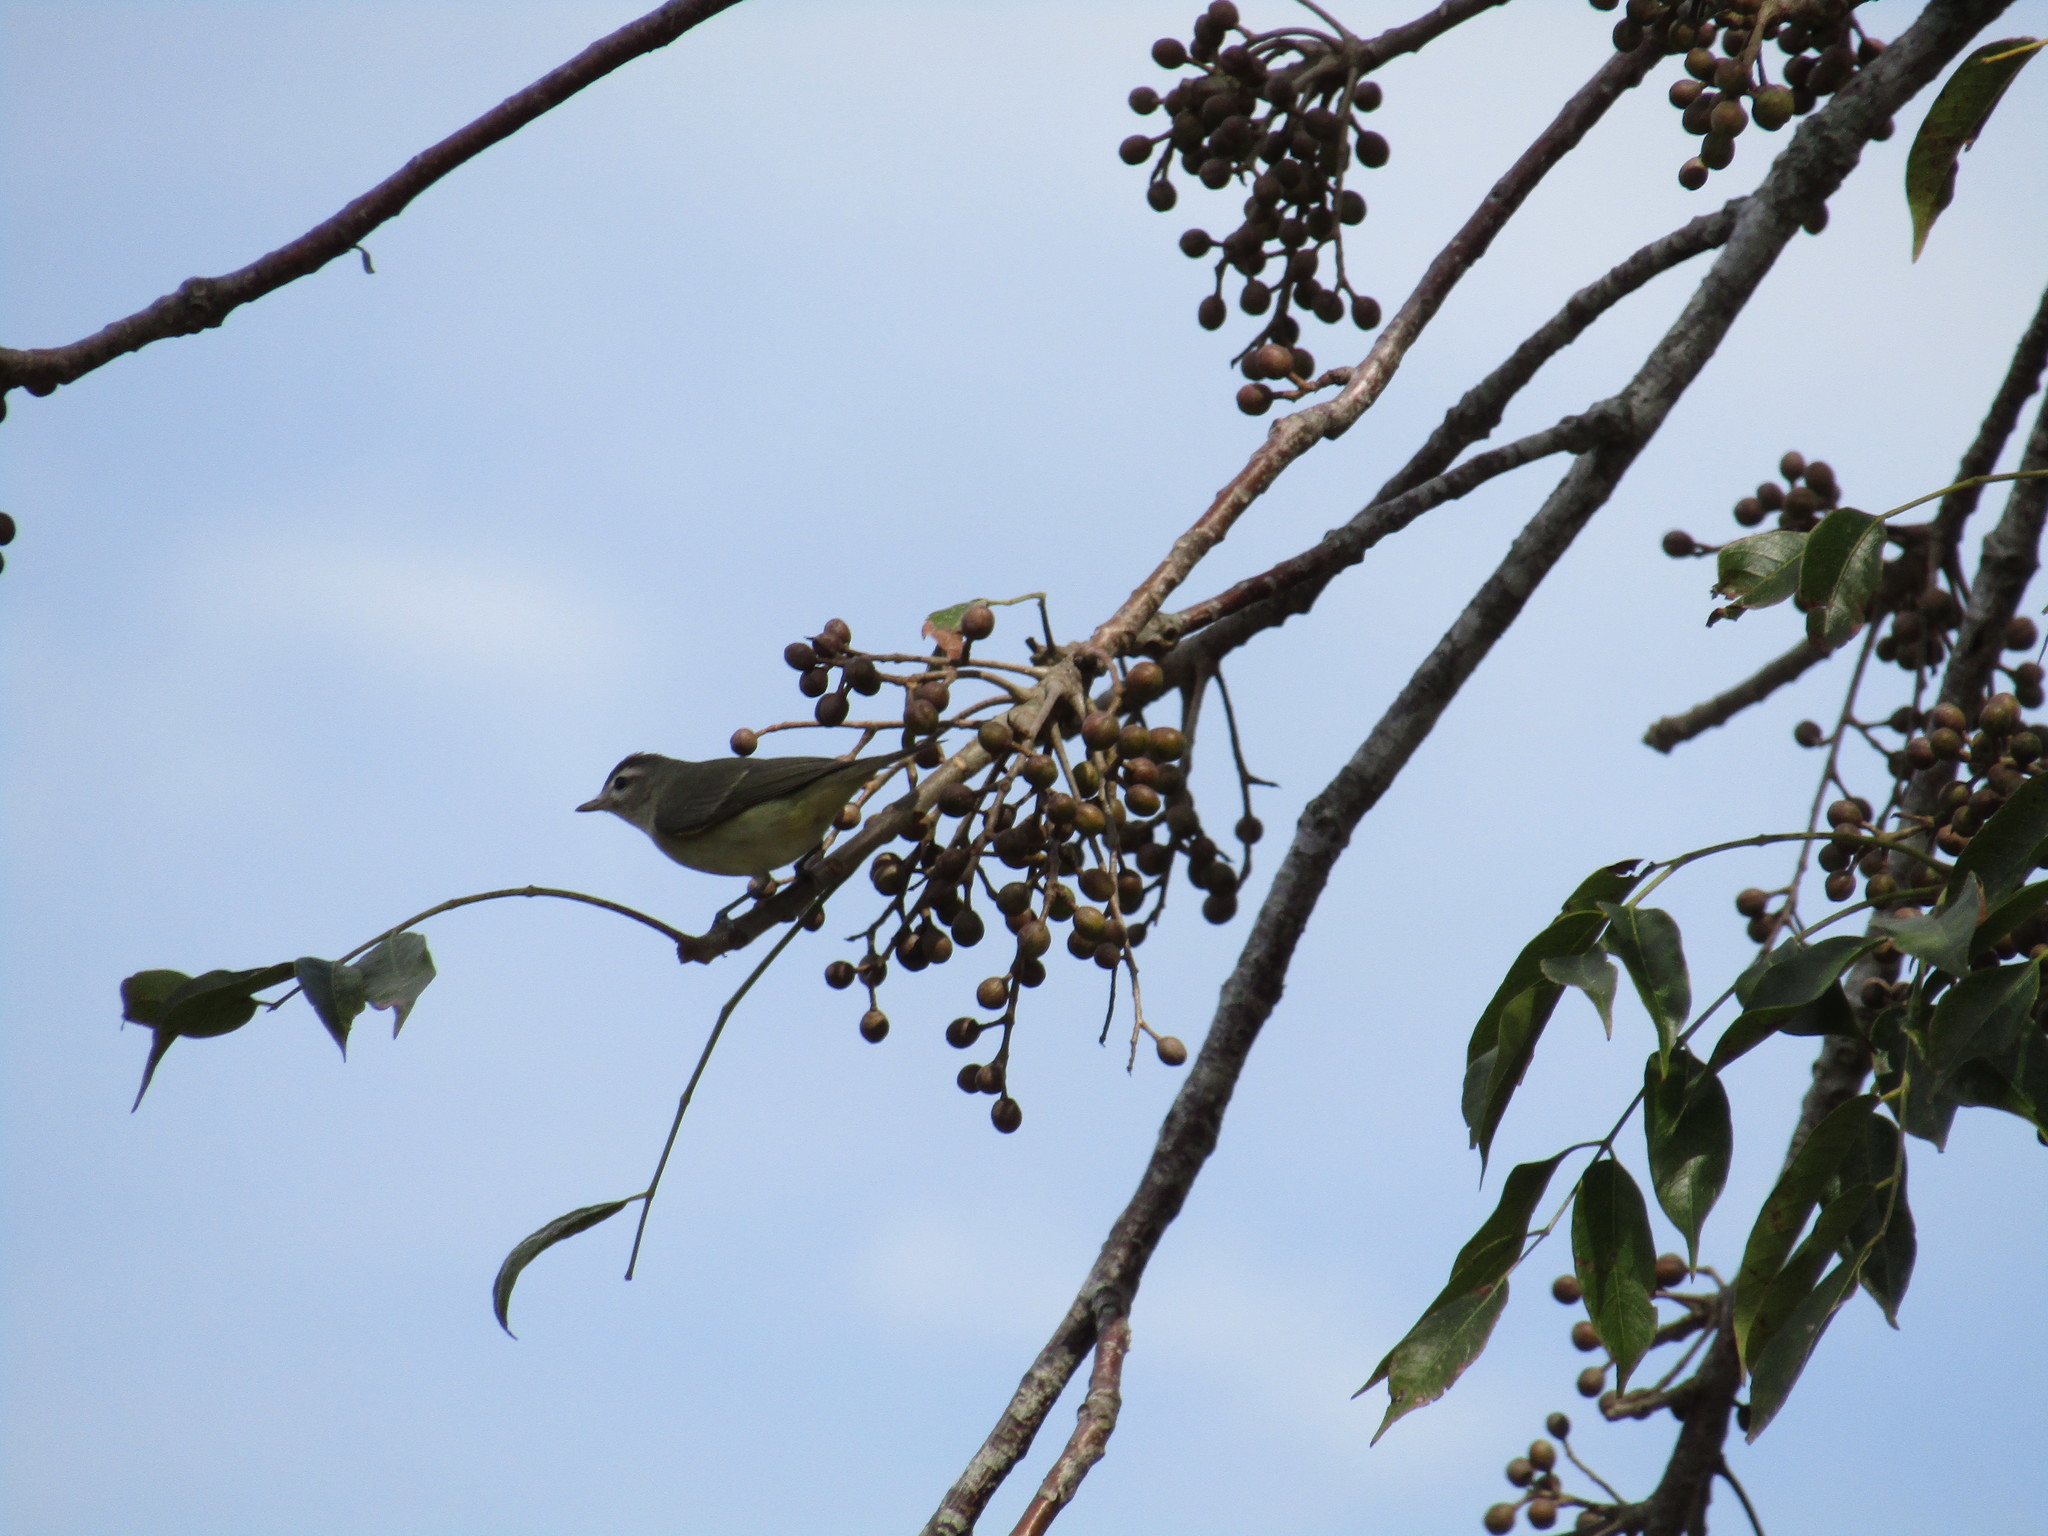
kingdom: Animalia
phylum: Chordata
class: Aves
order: Passeriformes
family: Vireonidae
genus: Vireo
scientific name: Vireo leucophrys
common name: Brown-capped vireo
